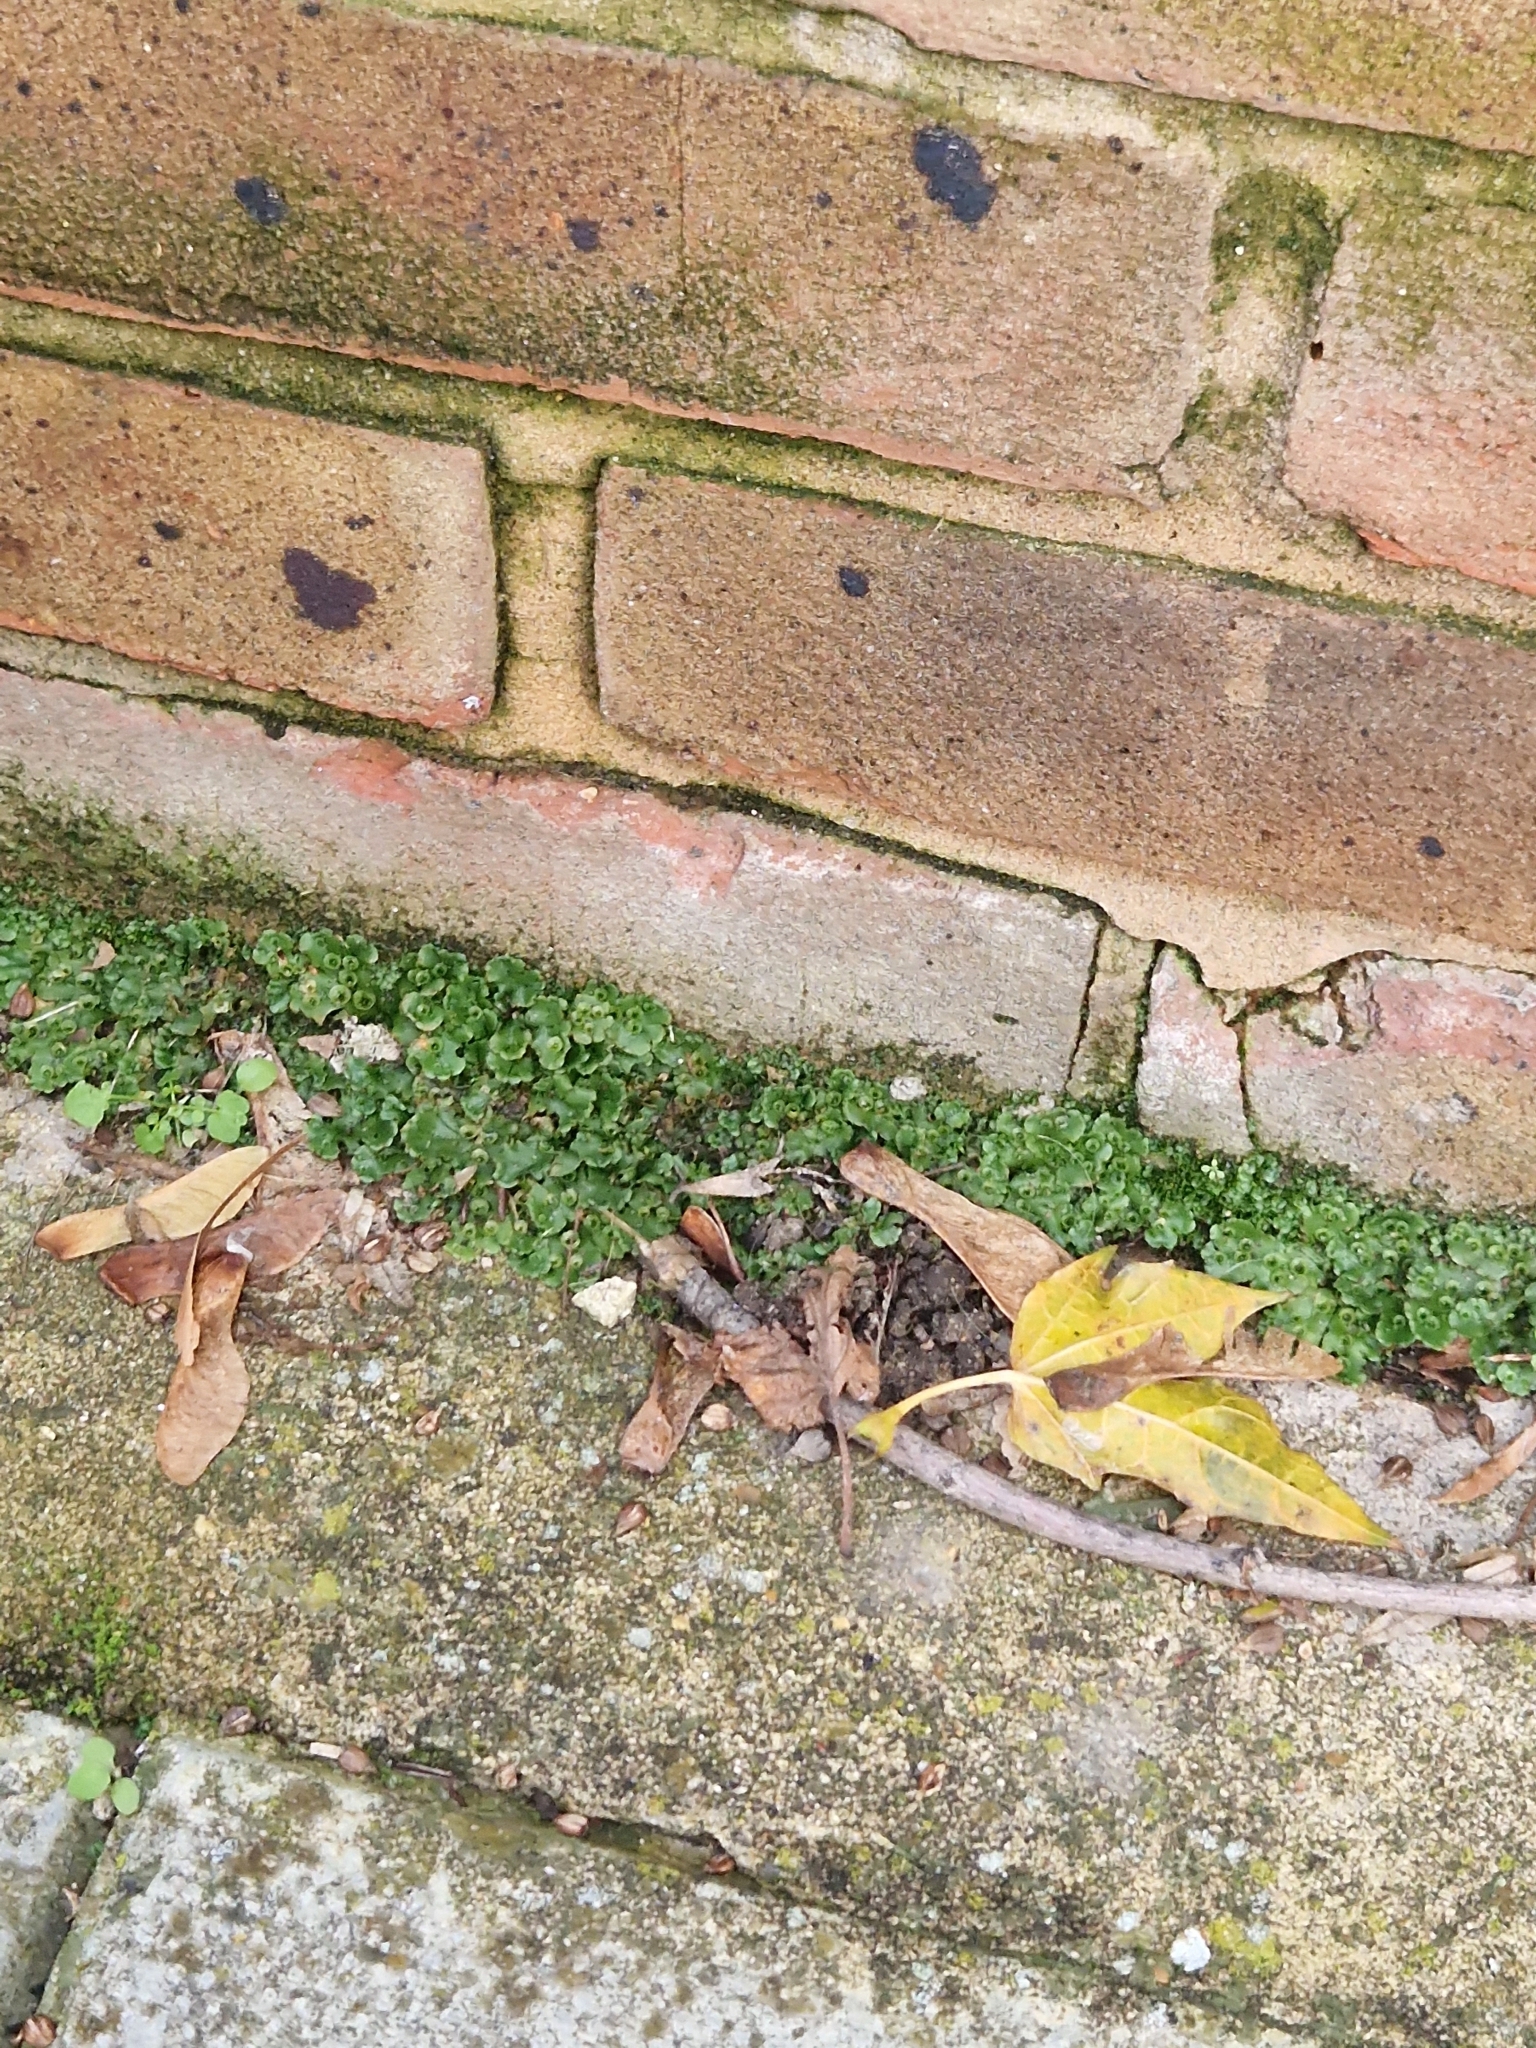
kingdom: Plantae
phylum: Marchantiophyta
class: Marchantiopsida
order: Marchantiales
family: Marchantiaceae
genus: Marchantia
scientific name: Marchantia polymorpha
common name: Common liverwort
